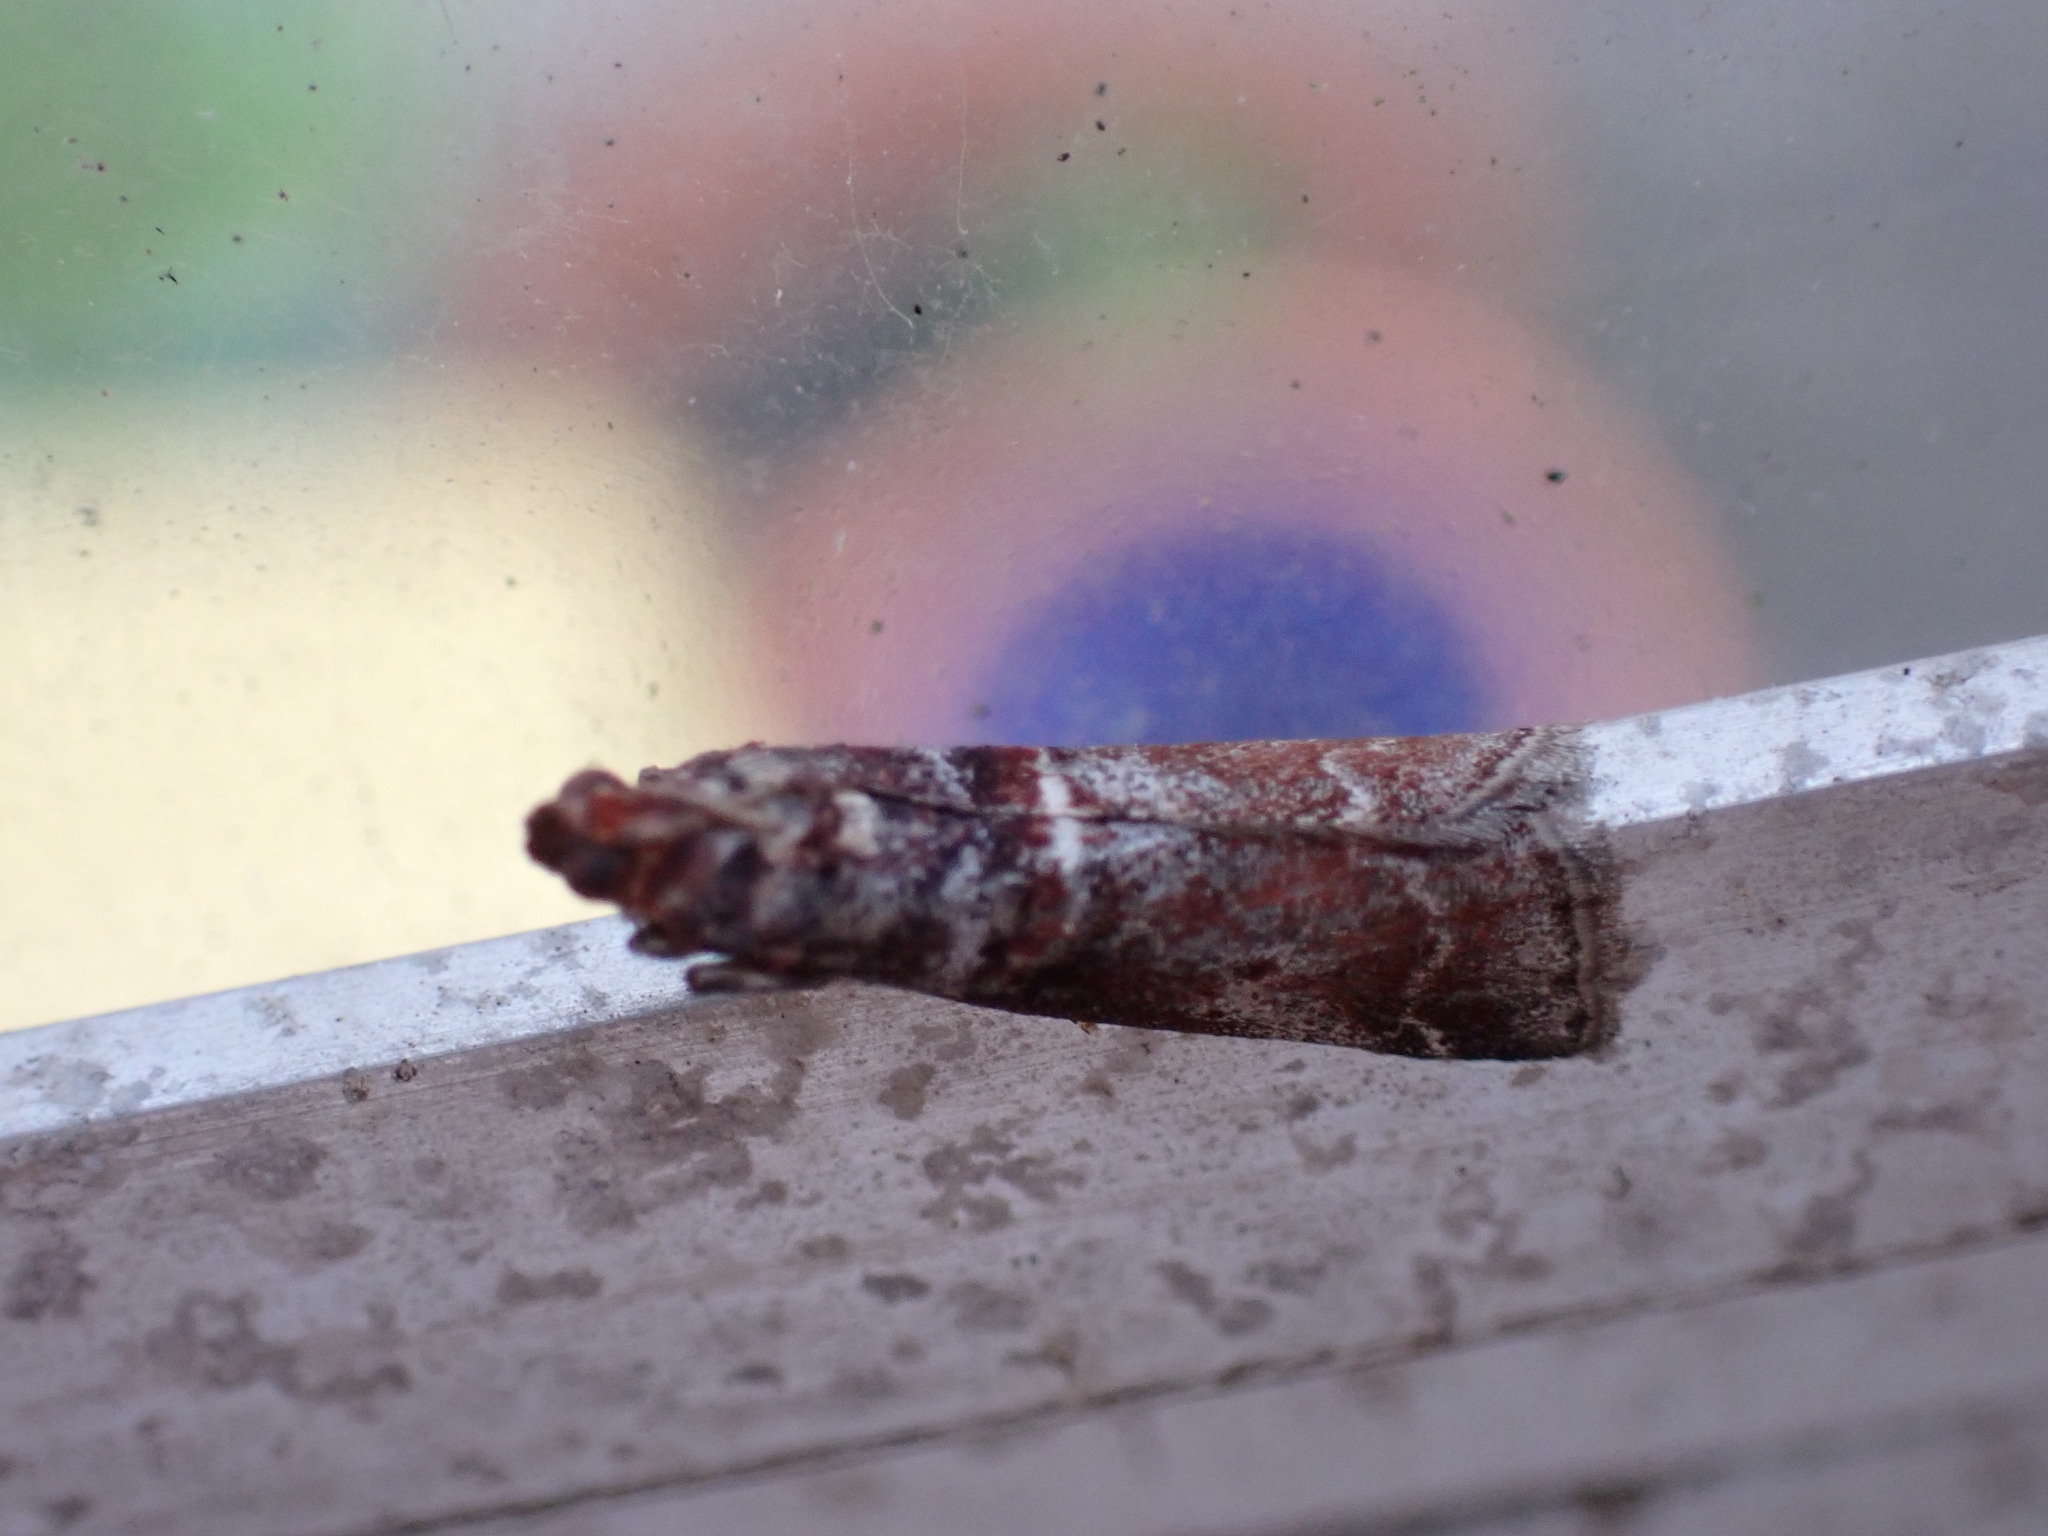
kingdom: Animalia
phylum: Arthropoda
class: Insecta
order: Lepidoptera
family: Pyralidae
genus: Acrobasis
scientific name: Acrobasis advenella
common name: Grey knot-horn
